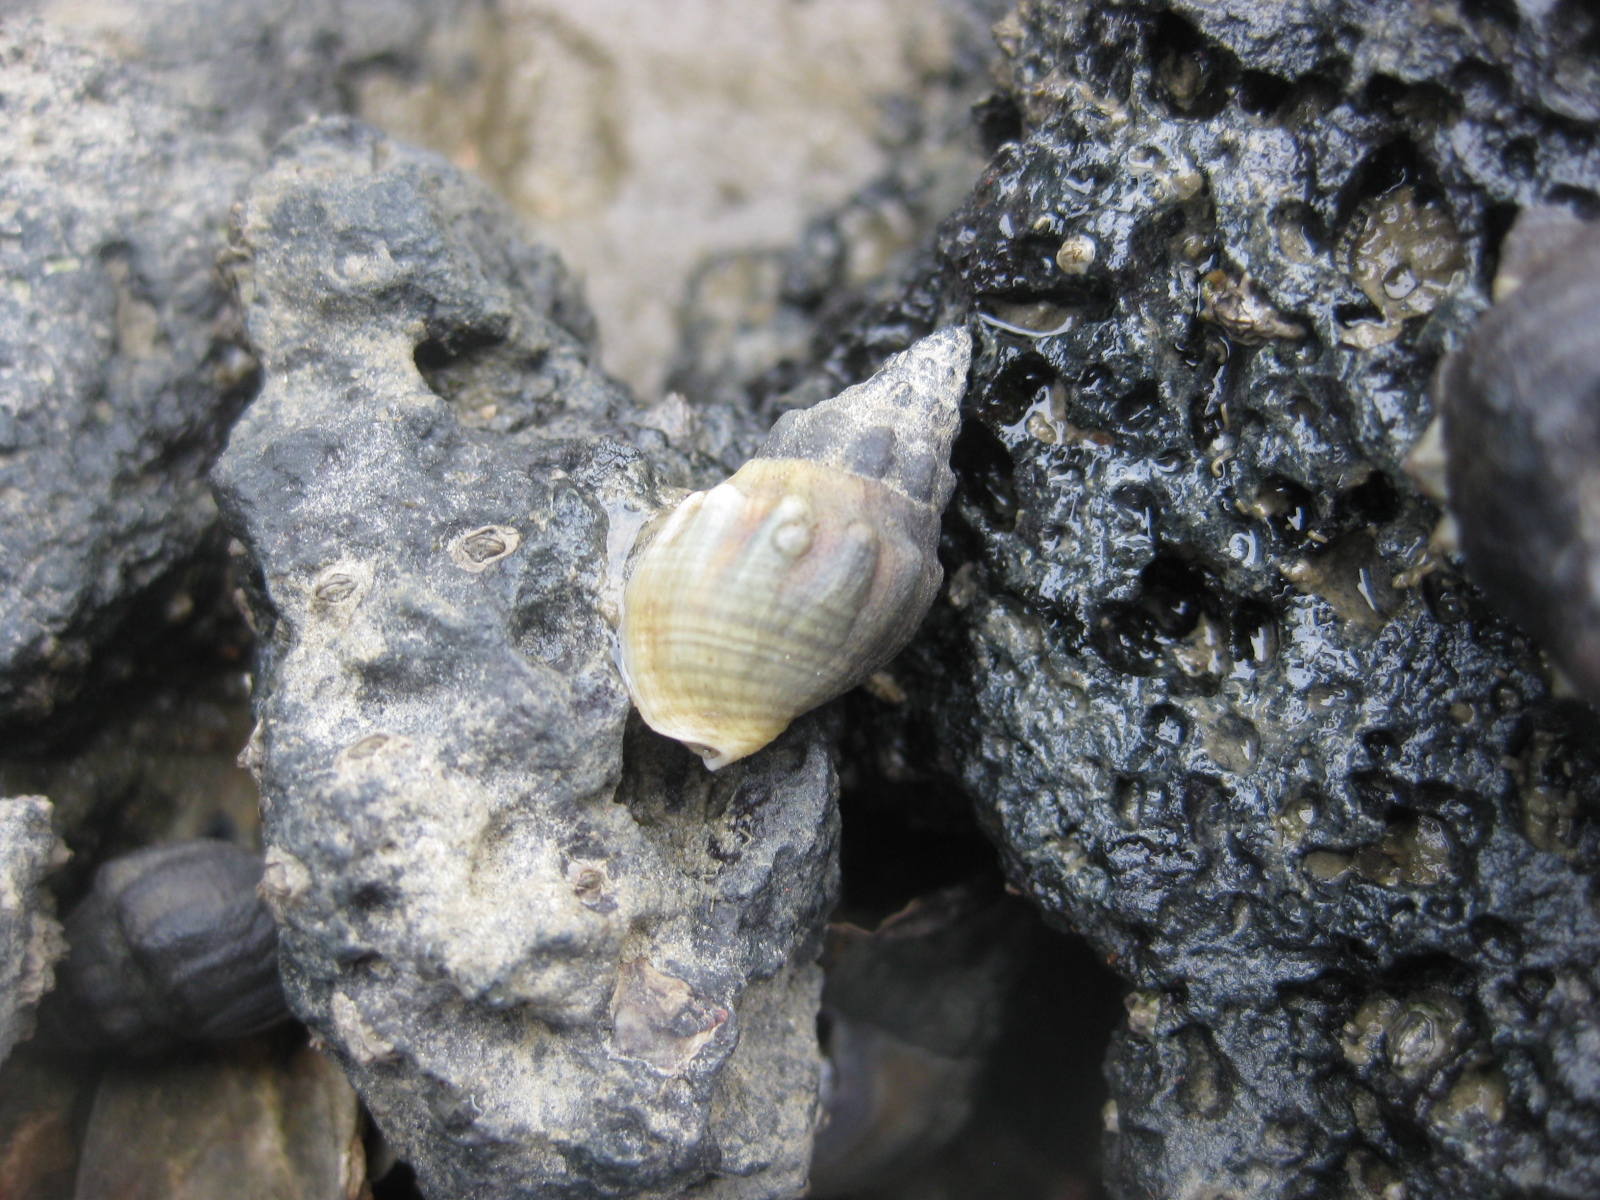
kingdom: Animalia
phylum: Mollusca
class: Gastropoda
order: Neogastropoda
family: Cominellidae
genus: Cominella
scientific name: Cominella glandiformis
